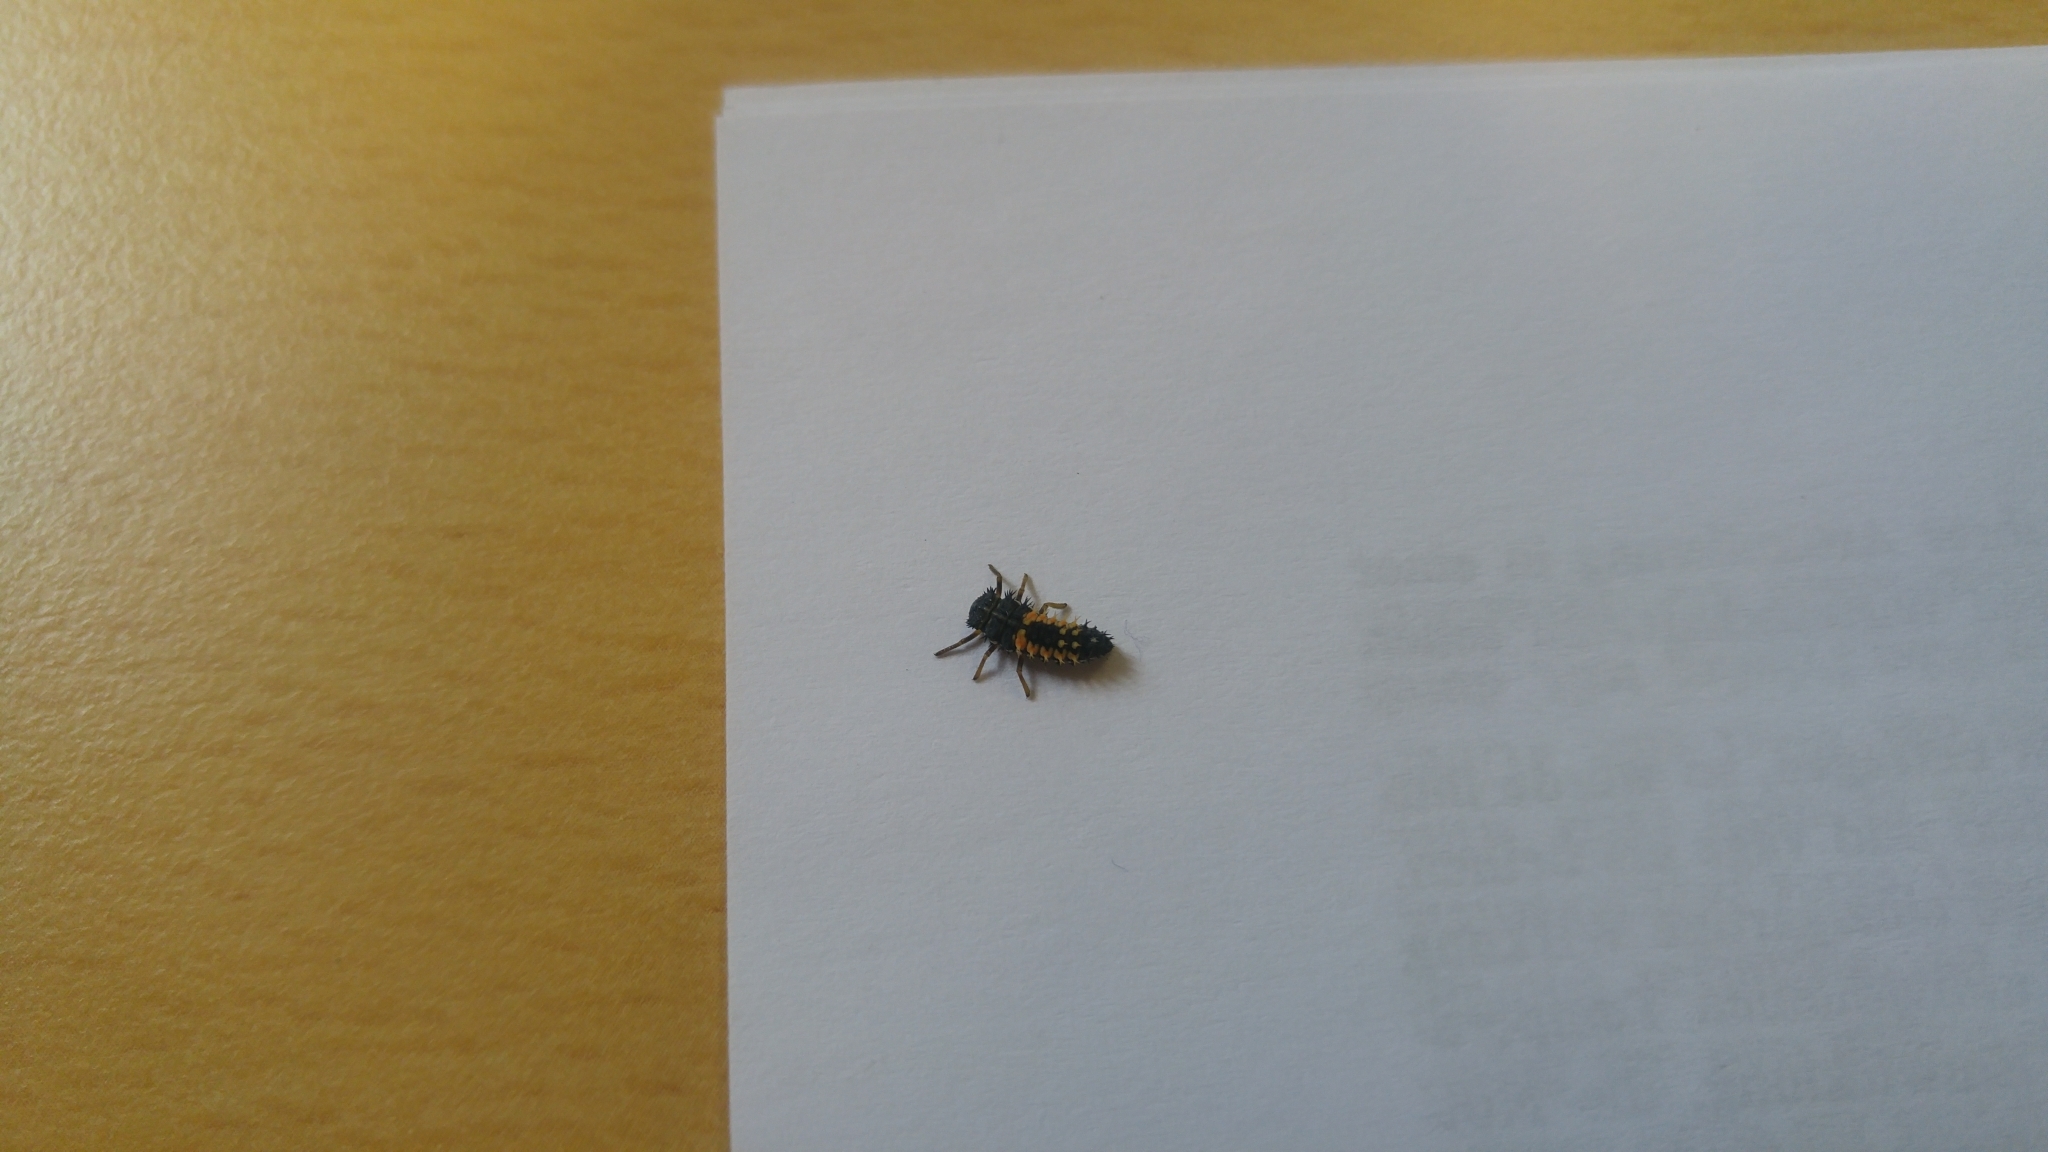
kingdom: Animalia
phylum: Arthropoda
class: Insecta
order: Coleoptera
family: Coccinellidae
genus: Harmonia
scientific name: Harmonia axyridis
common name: Harlequin ladybird
